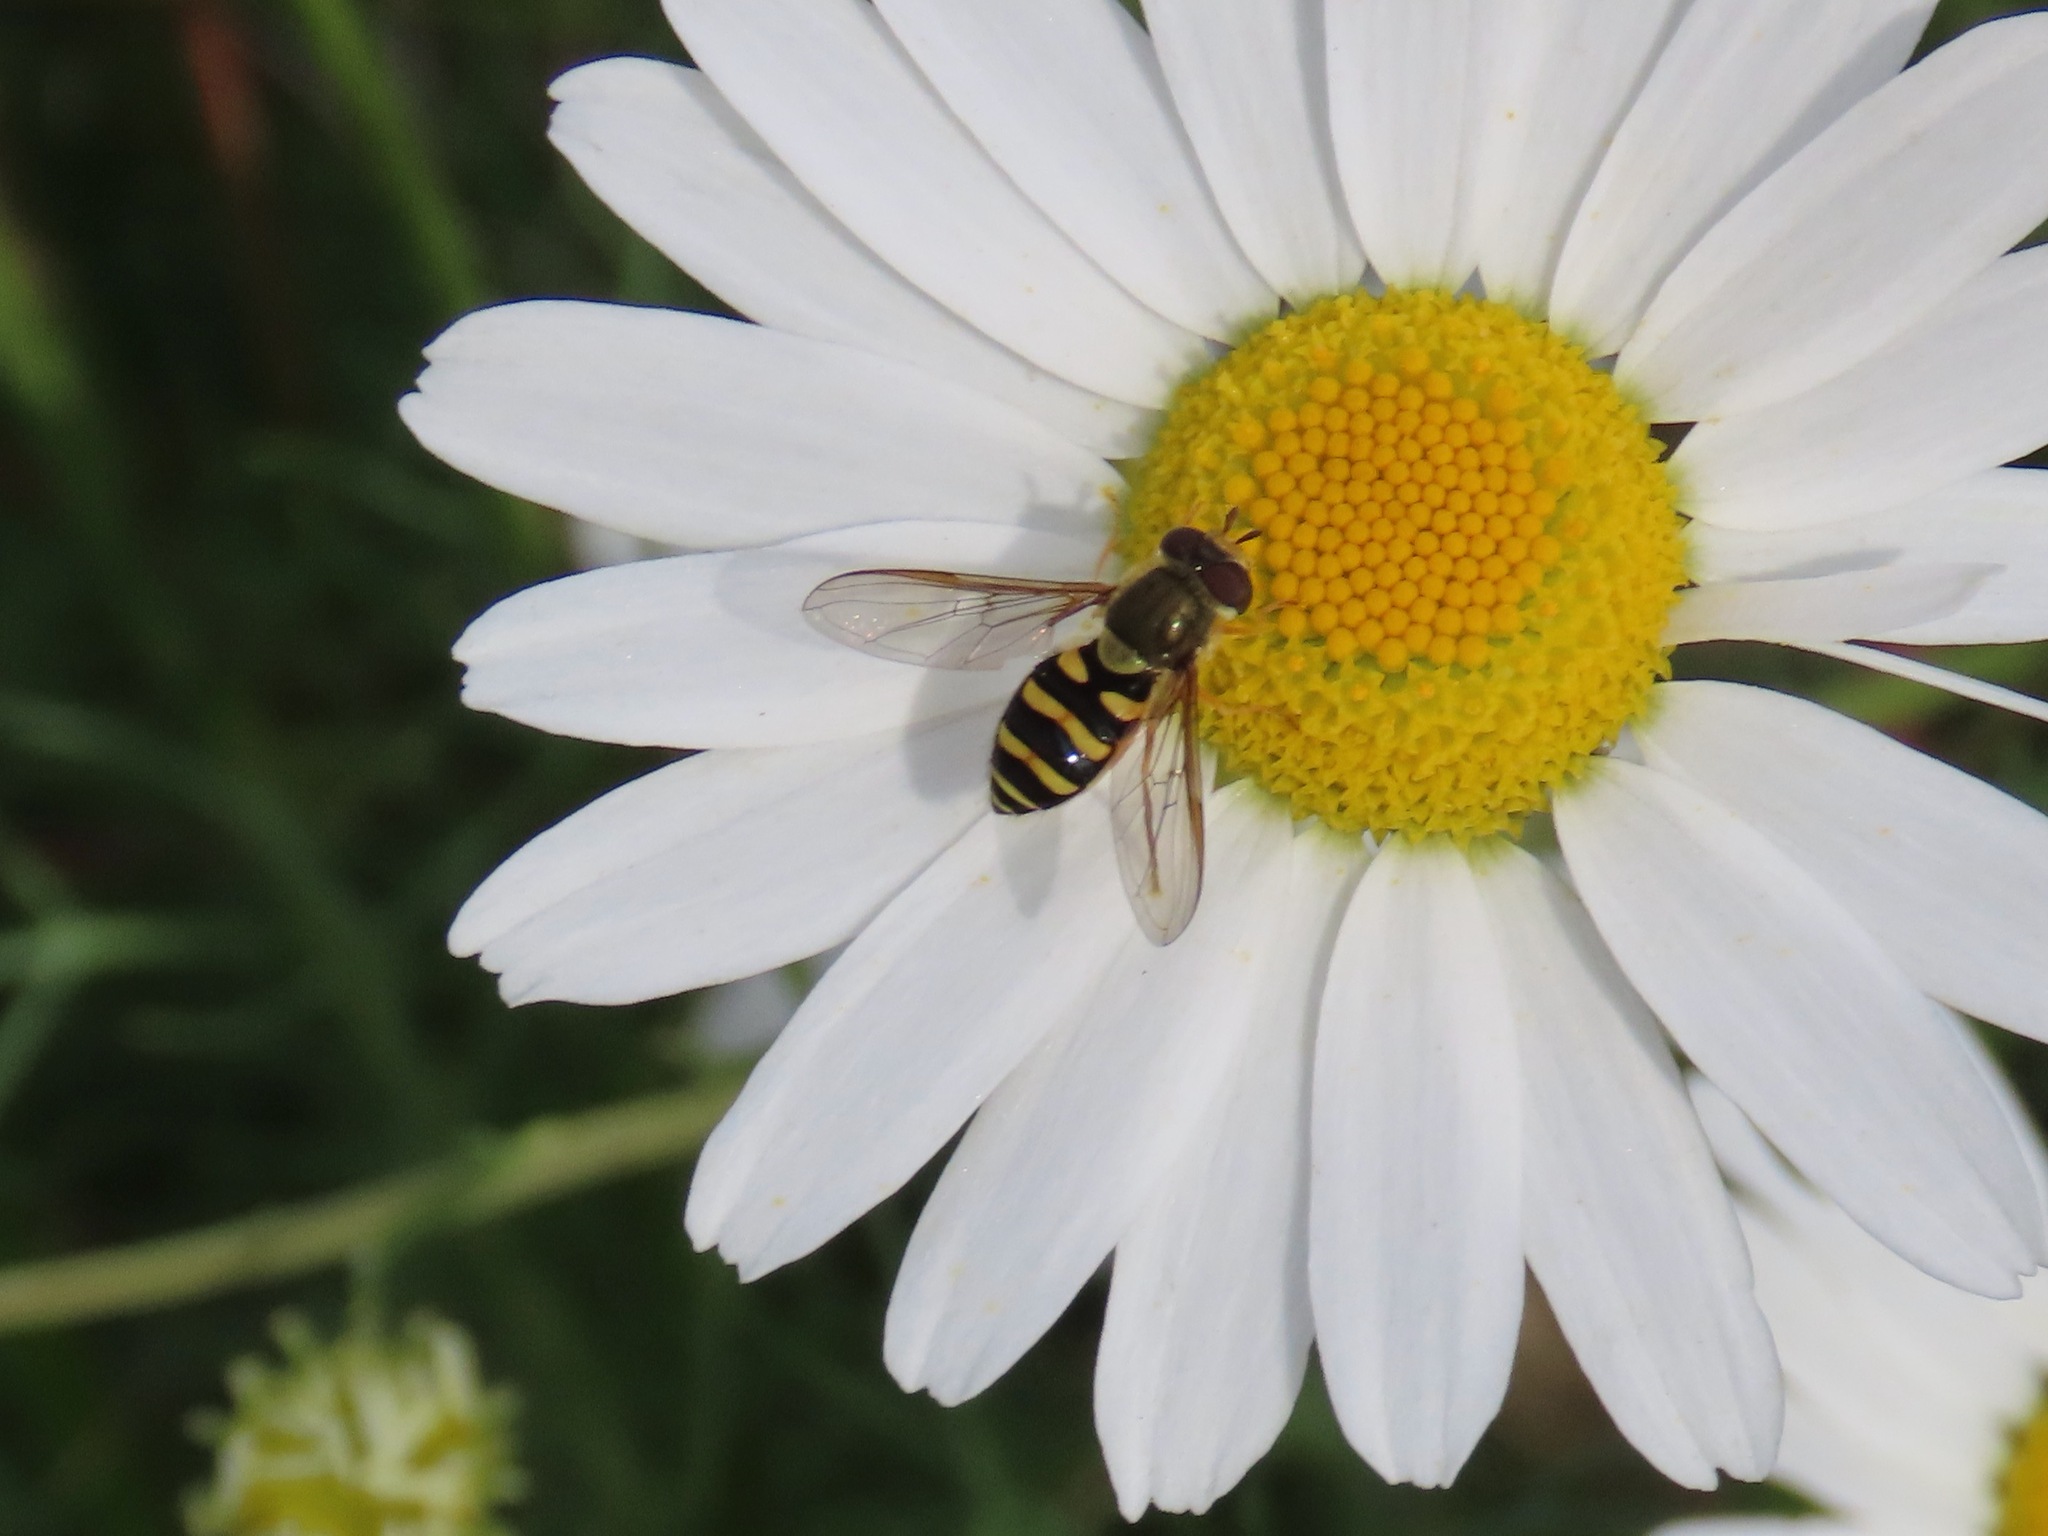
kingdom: Animalia
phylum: Arthropoda
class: Insecta
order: Diptera
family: Syrphidae
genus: Syrphus
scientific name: Syrphus opinator
